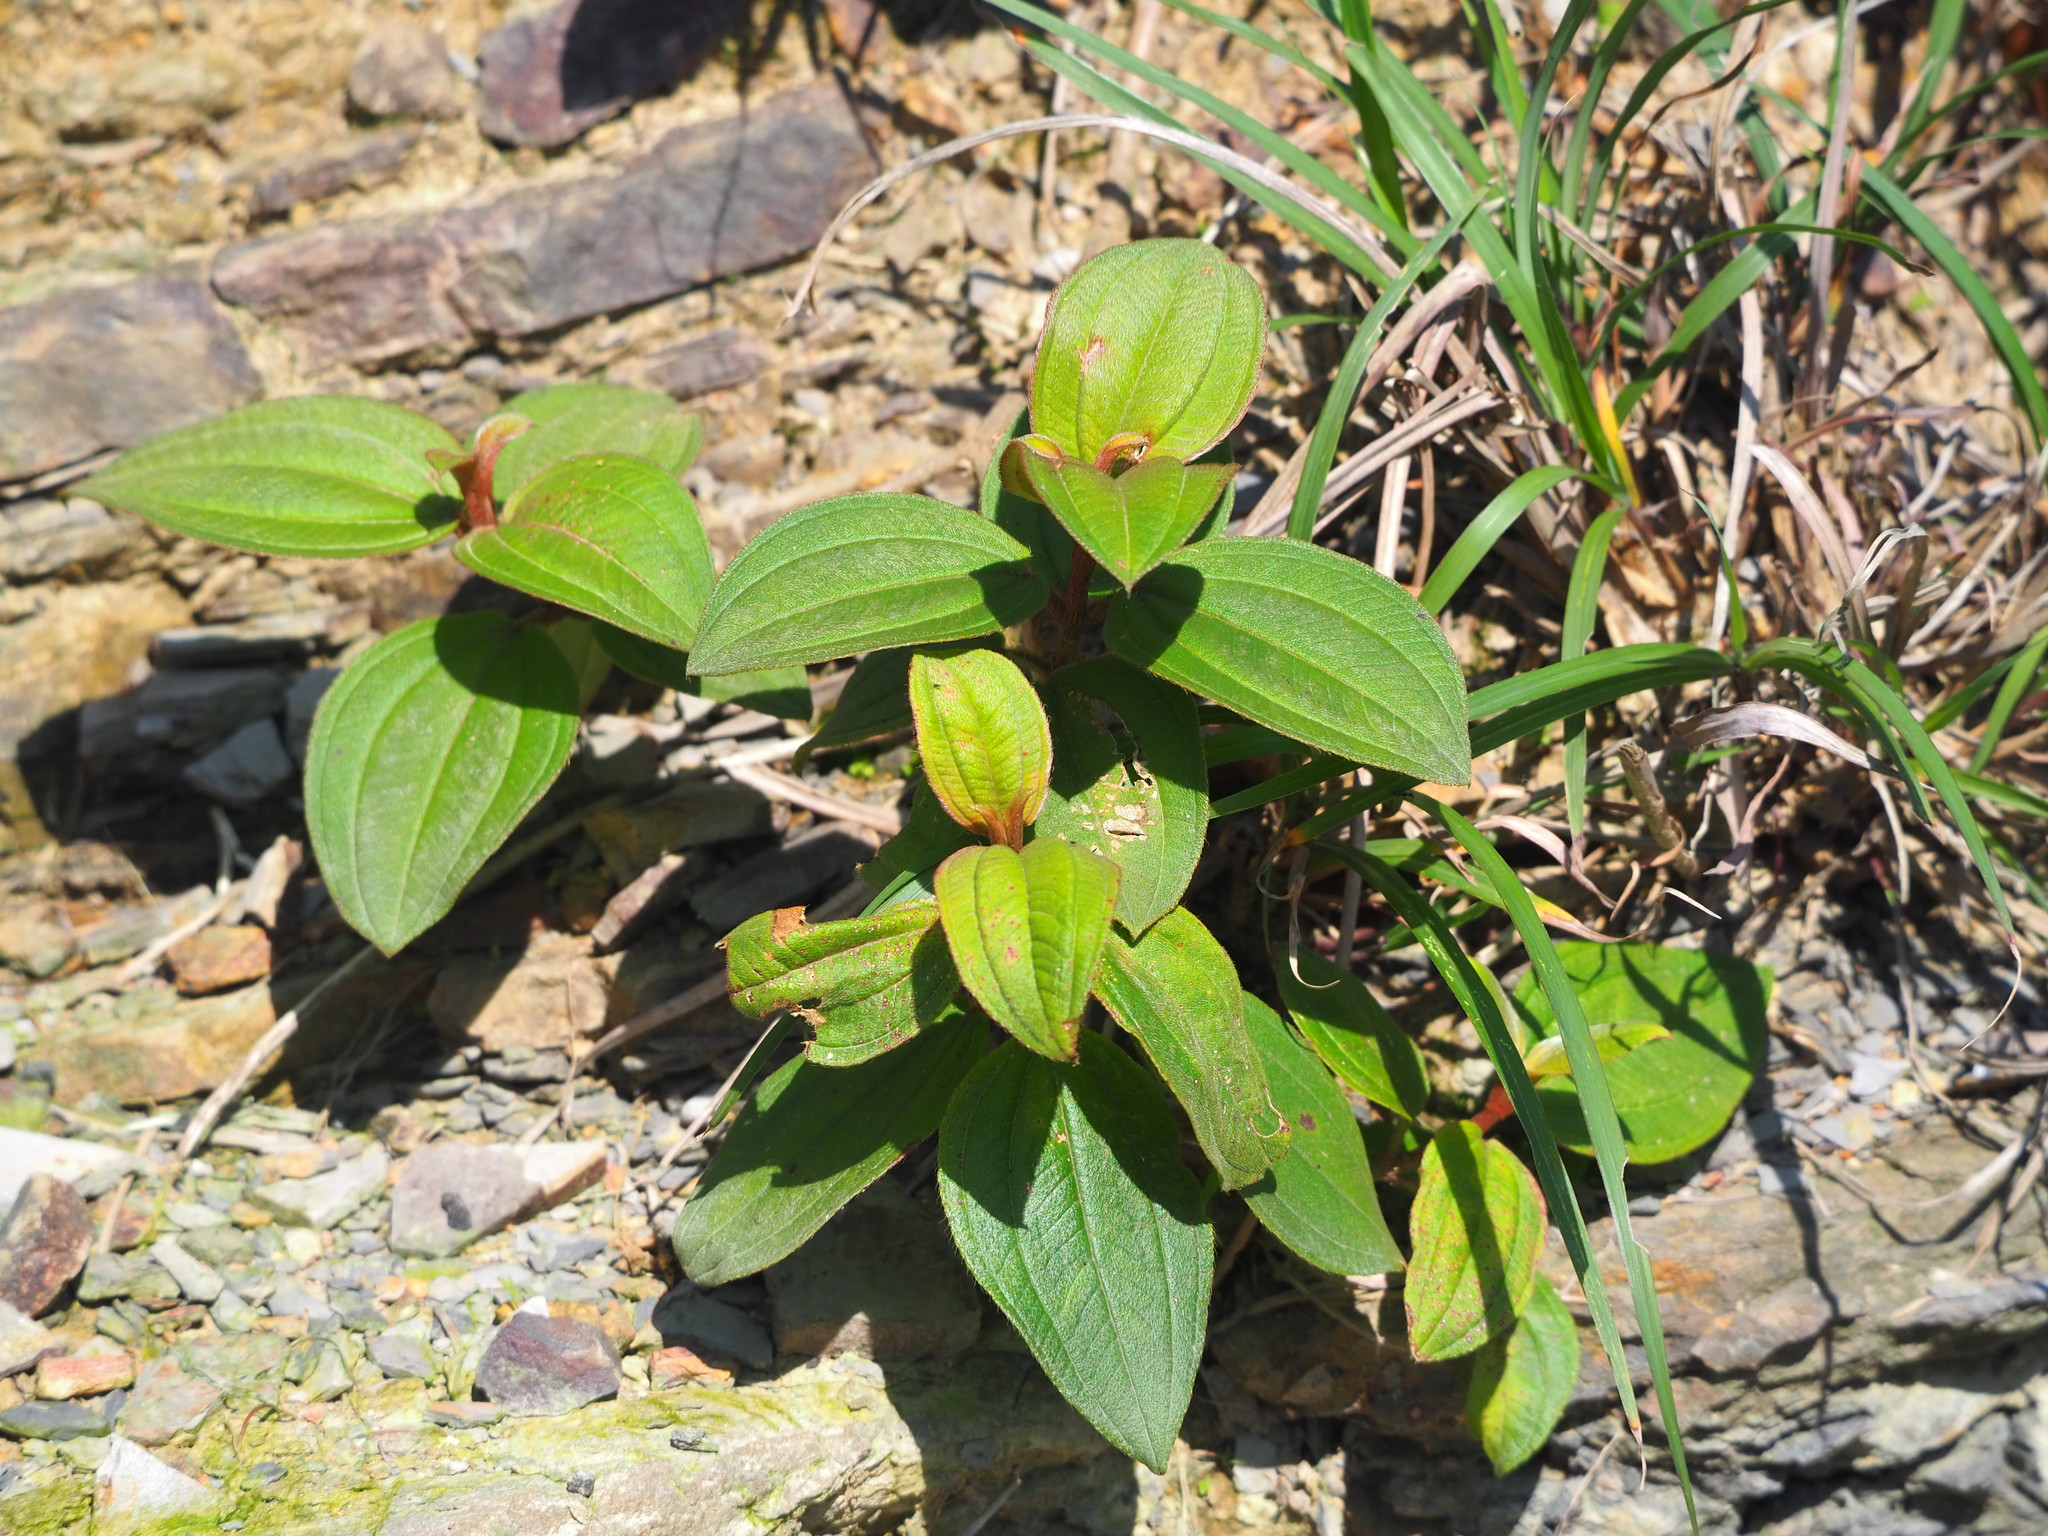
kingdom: Plantae
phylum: Tracheophyta
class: Magnoliopsida
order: Myrtales
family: Melastomataceae
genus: Melastoma
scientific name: Melastoma malabathricum
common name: Indian-rhododendron
